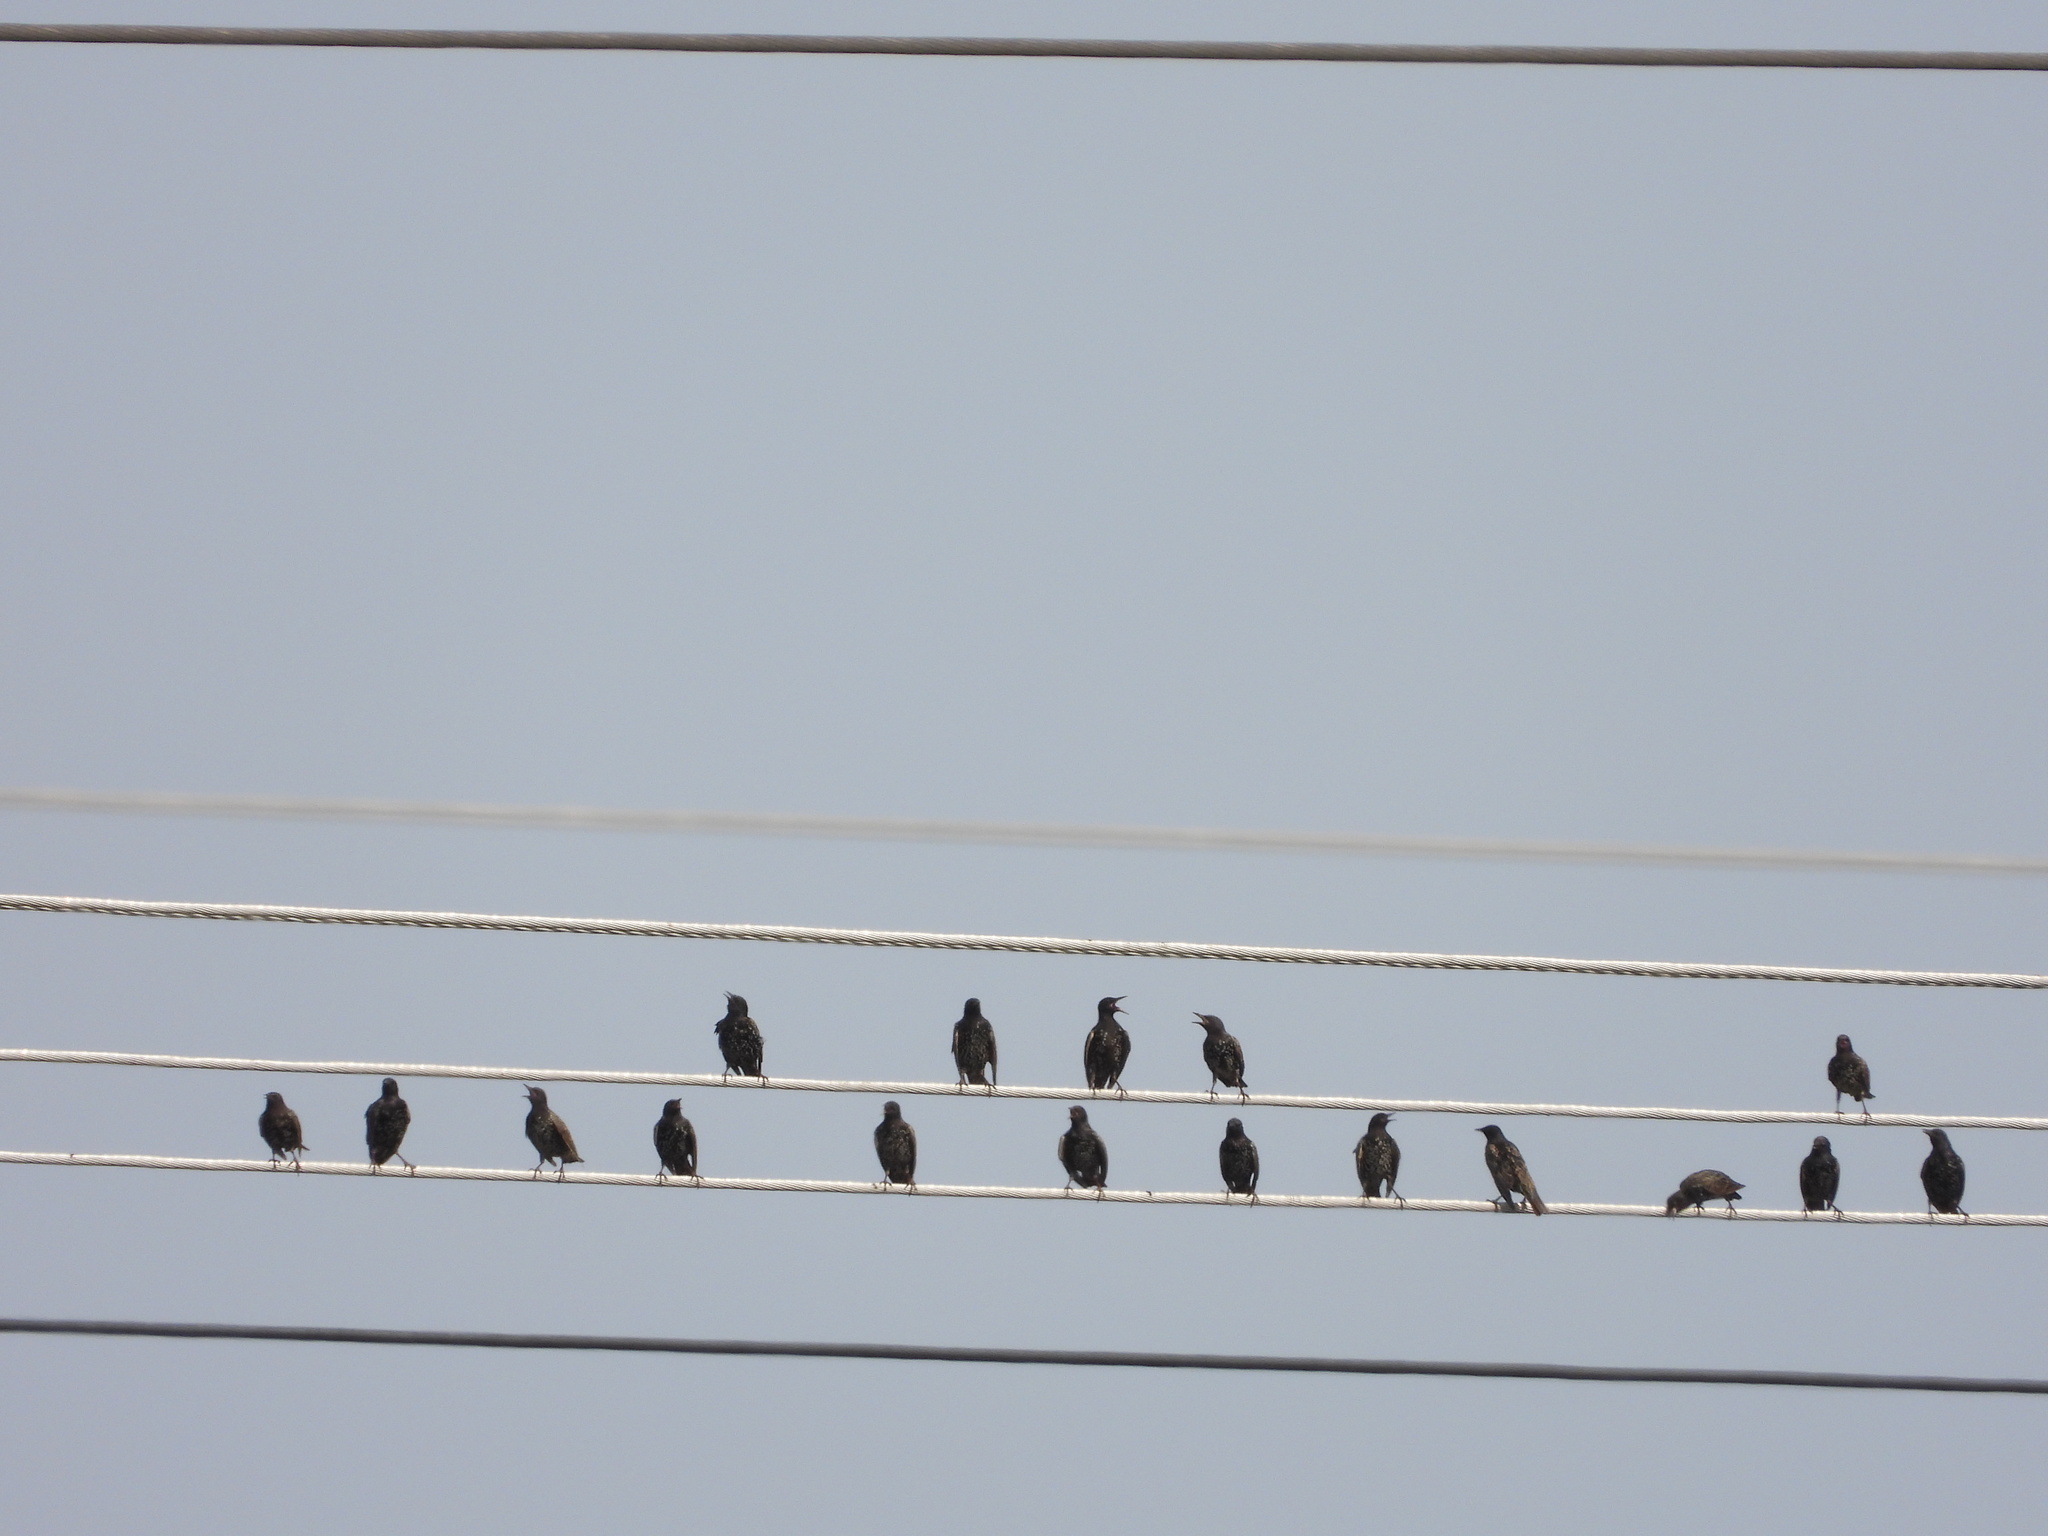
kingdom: Animalia
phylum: Chordata
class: Aves
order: Passeriformes
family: Sturnidae
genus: Sturnus
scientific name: Sturnus vulgaris
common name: Common starling
